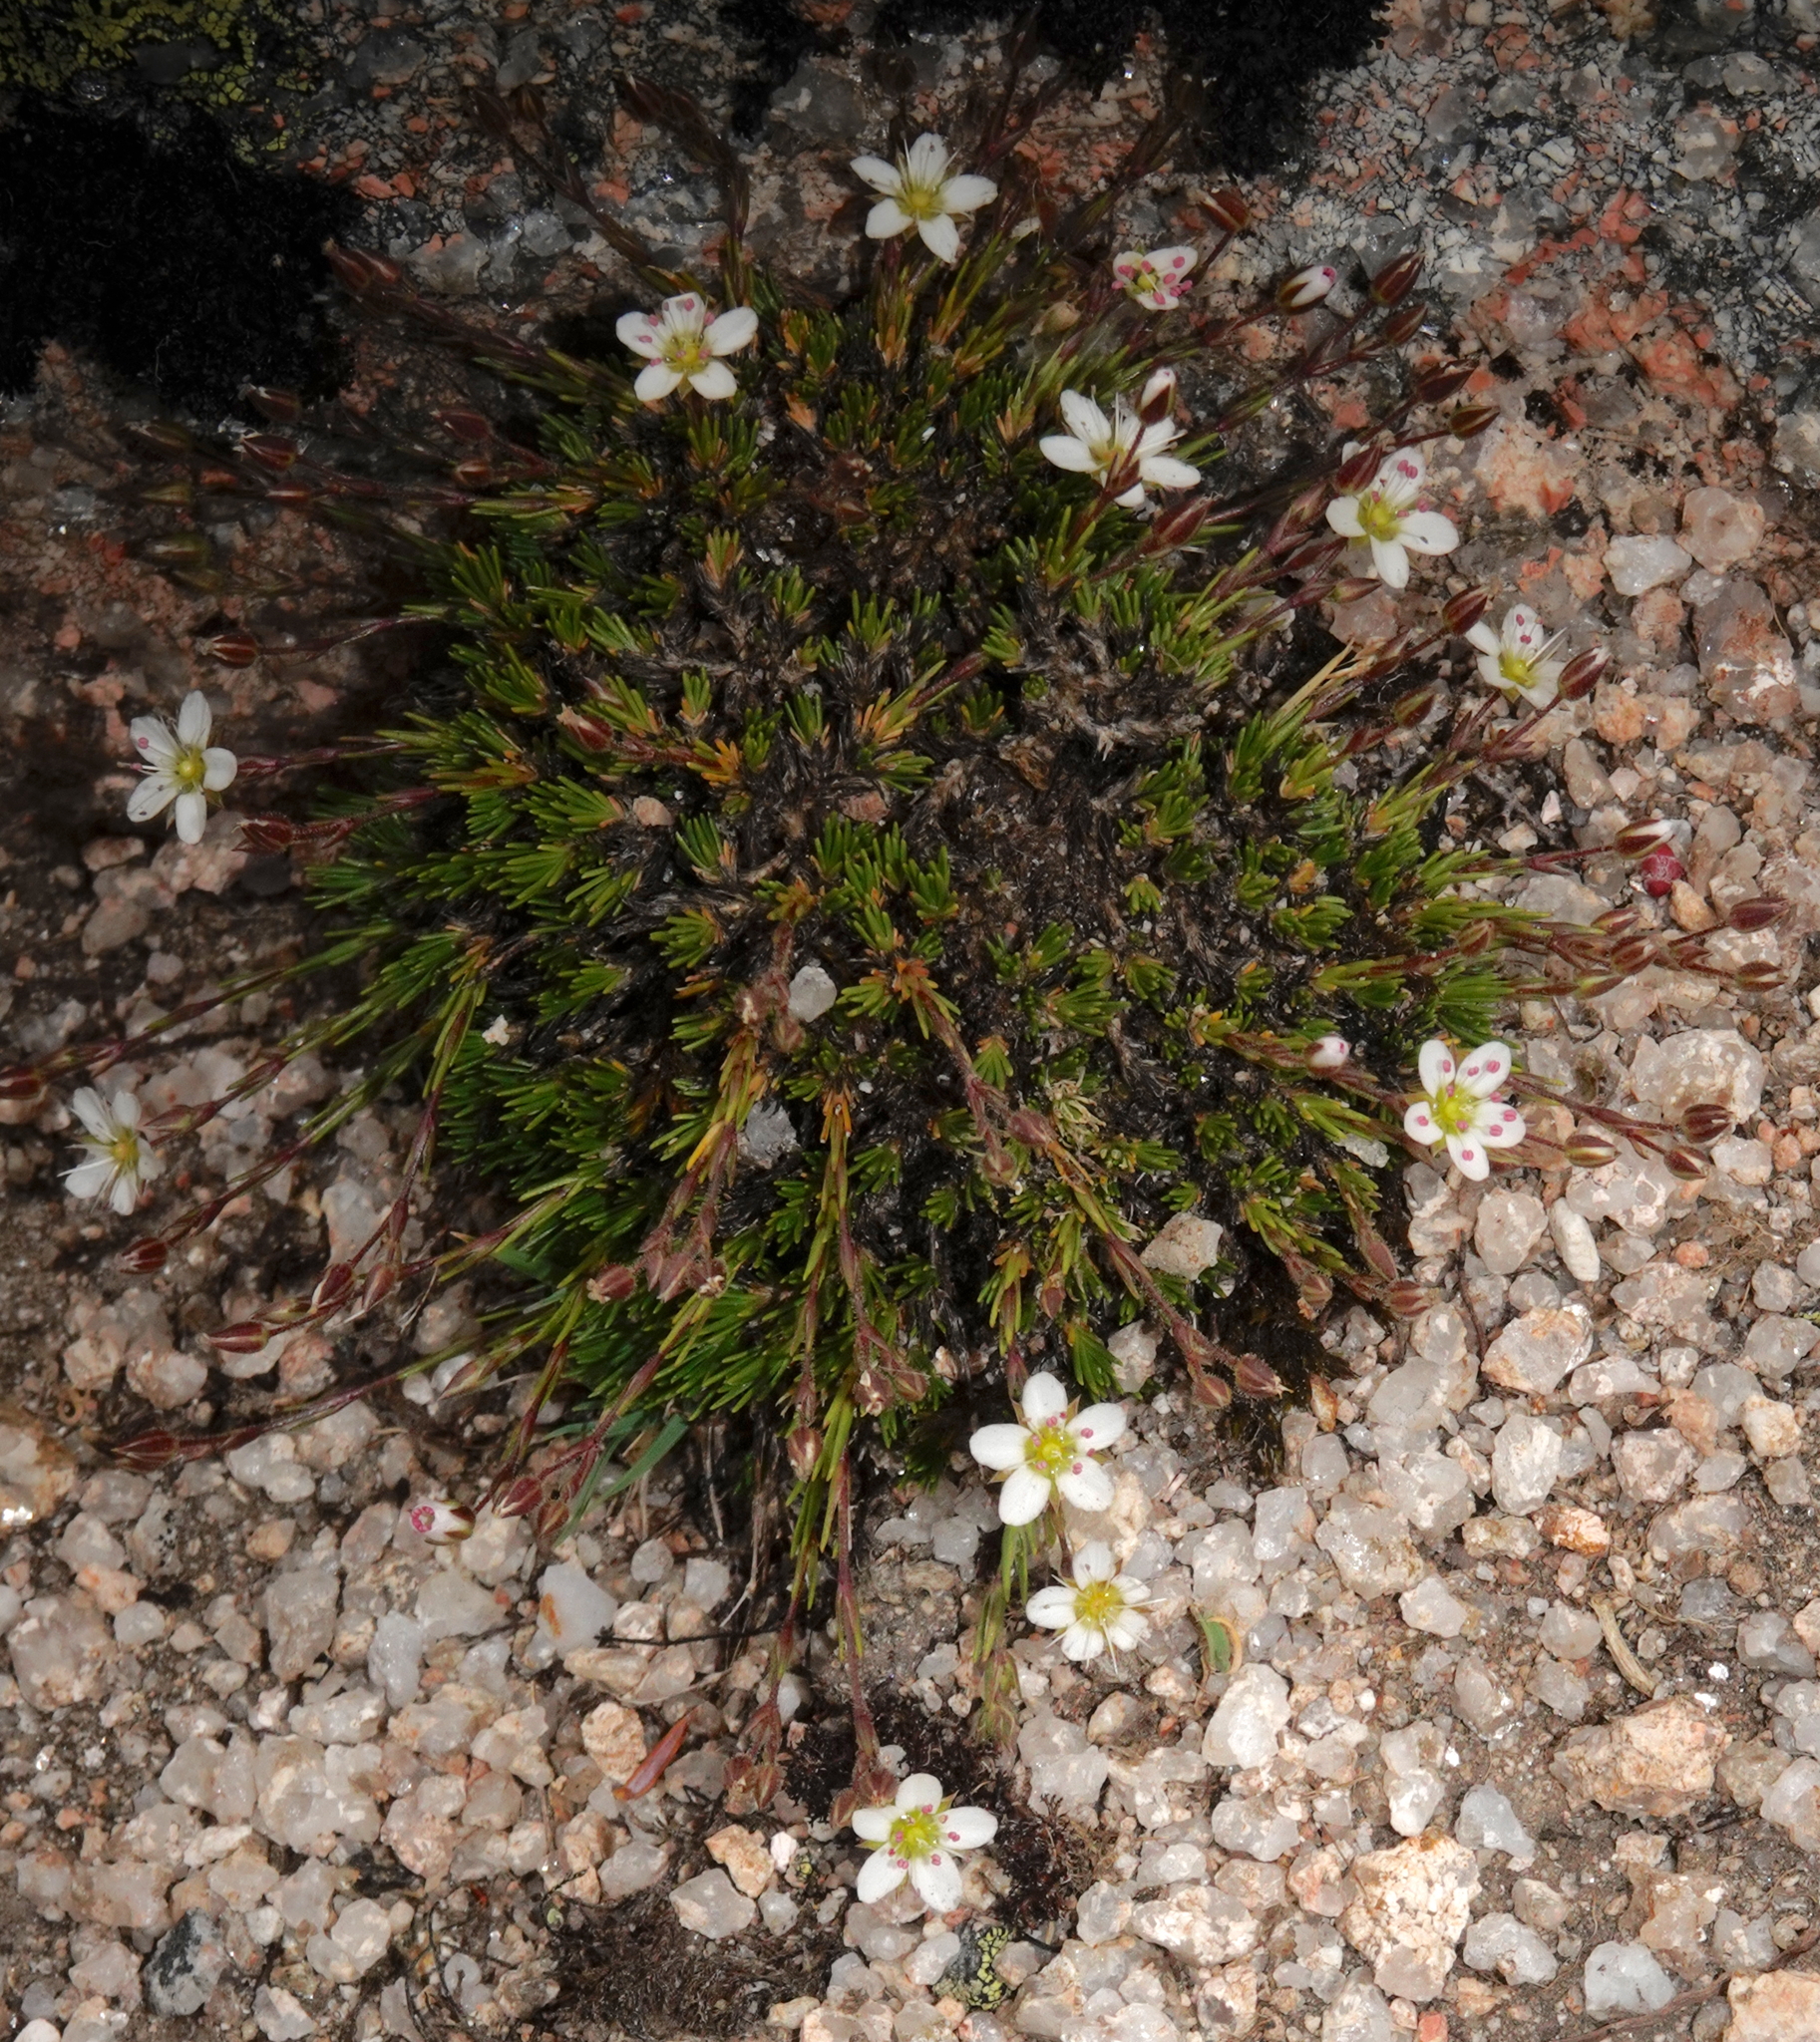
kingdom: Plantae
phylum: Tracheophyta
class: Magnoliopsida
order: Caryophyllales
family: Caryophyllaceae
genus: Minuartia
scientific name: Minuartia recurva
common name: Recurved sandwort
